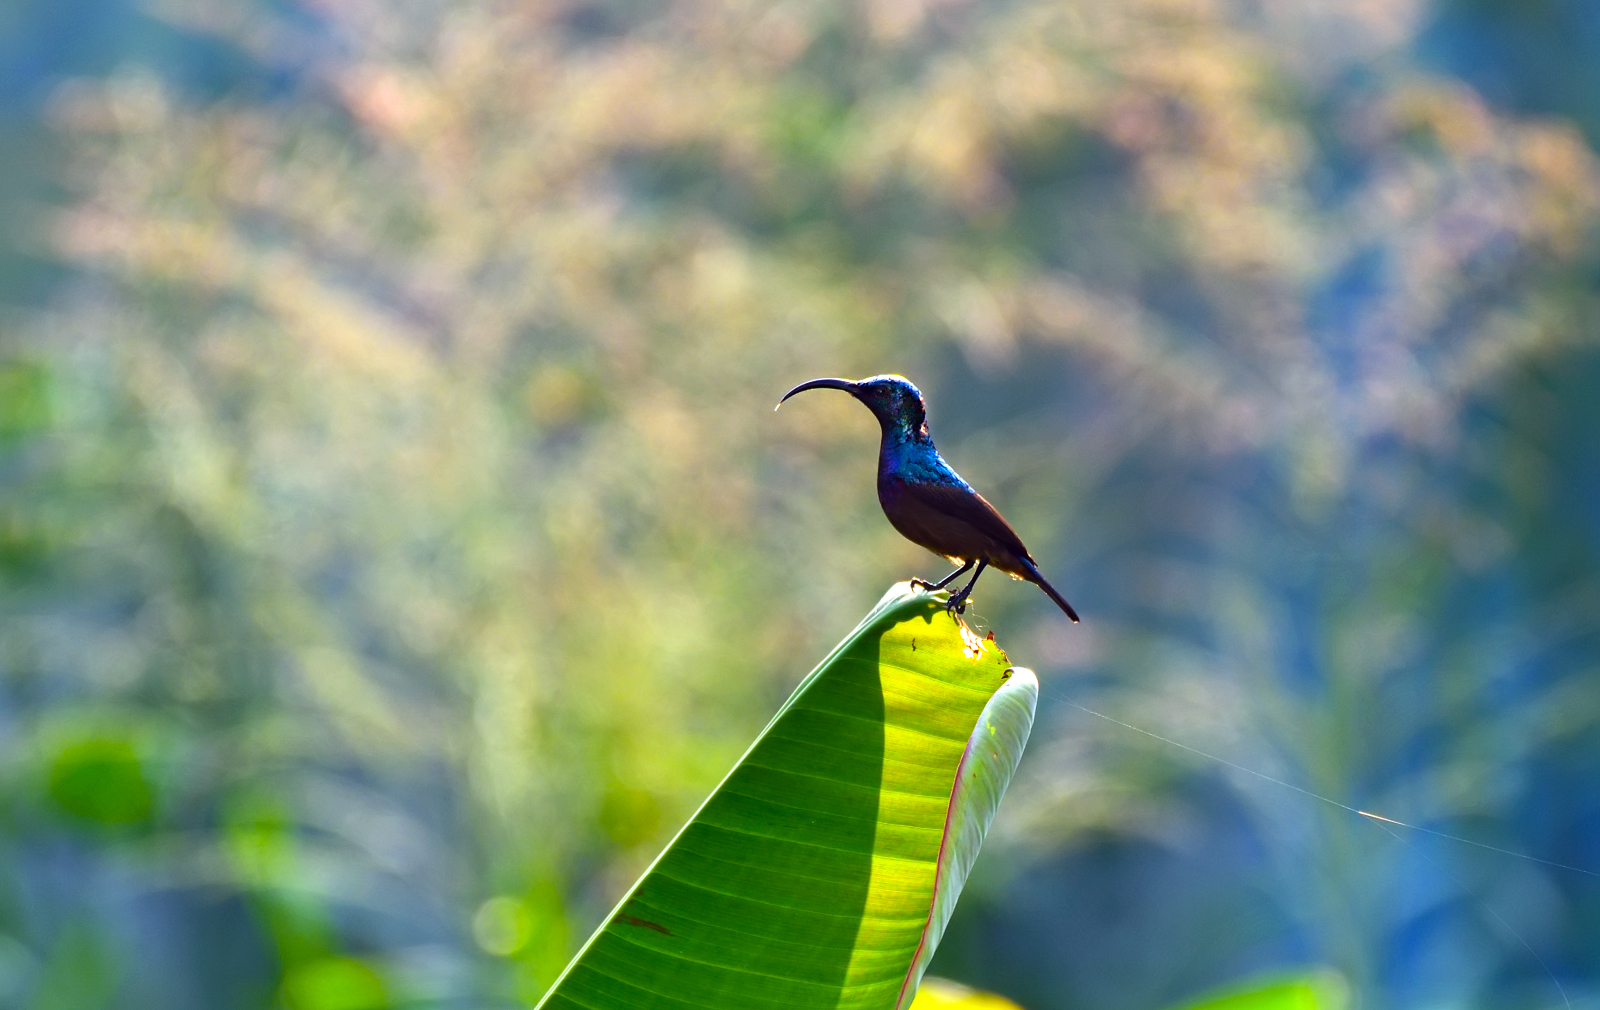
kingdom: Animalia
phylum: Chordata
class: Aves
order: Passeriformes
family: Nectariniidae
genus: Cinnyris
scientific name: Cinnyris lotenius
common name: Loten's sunbird
